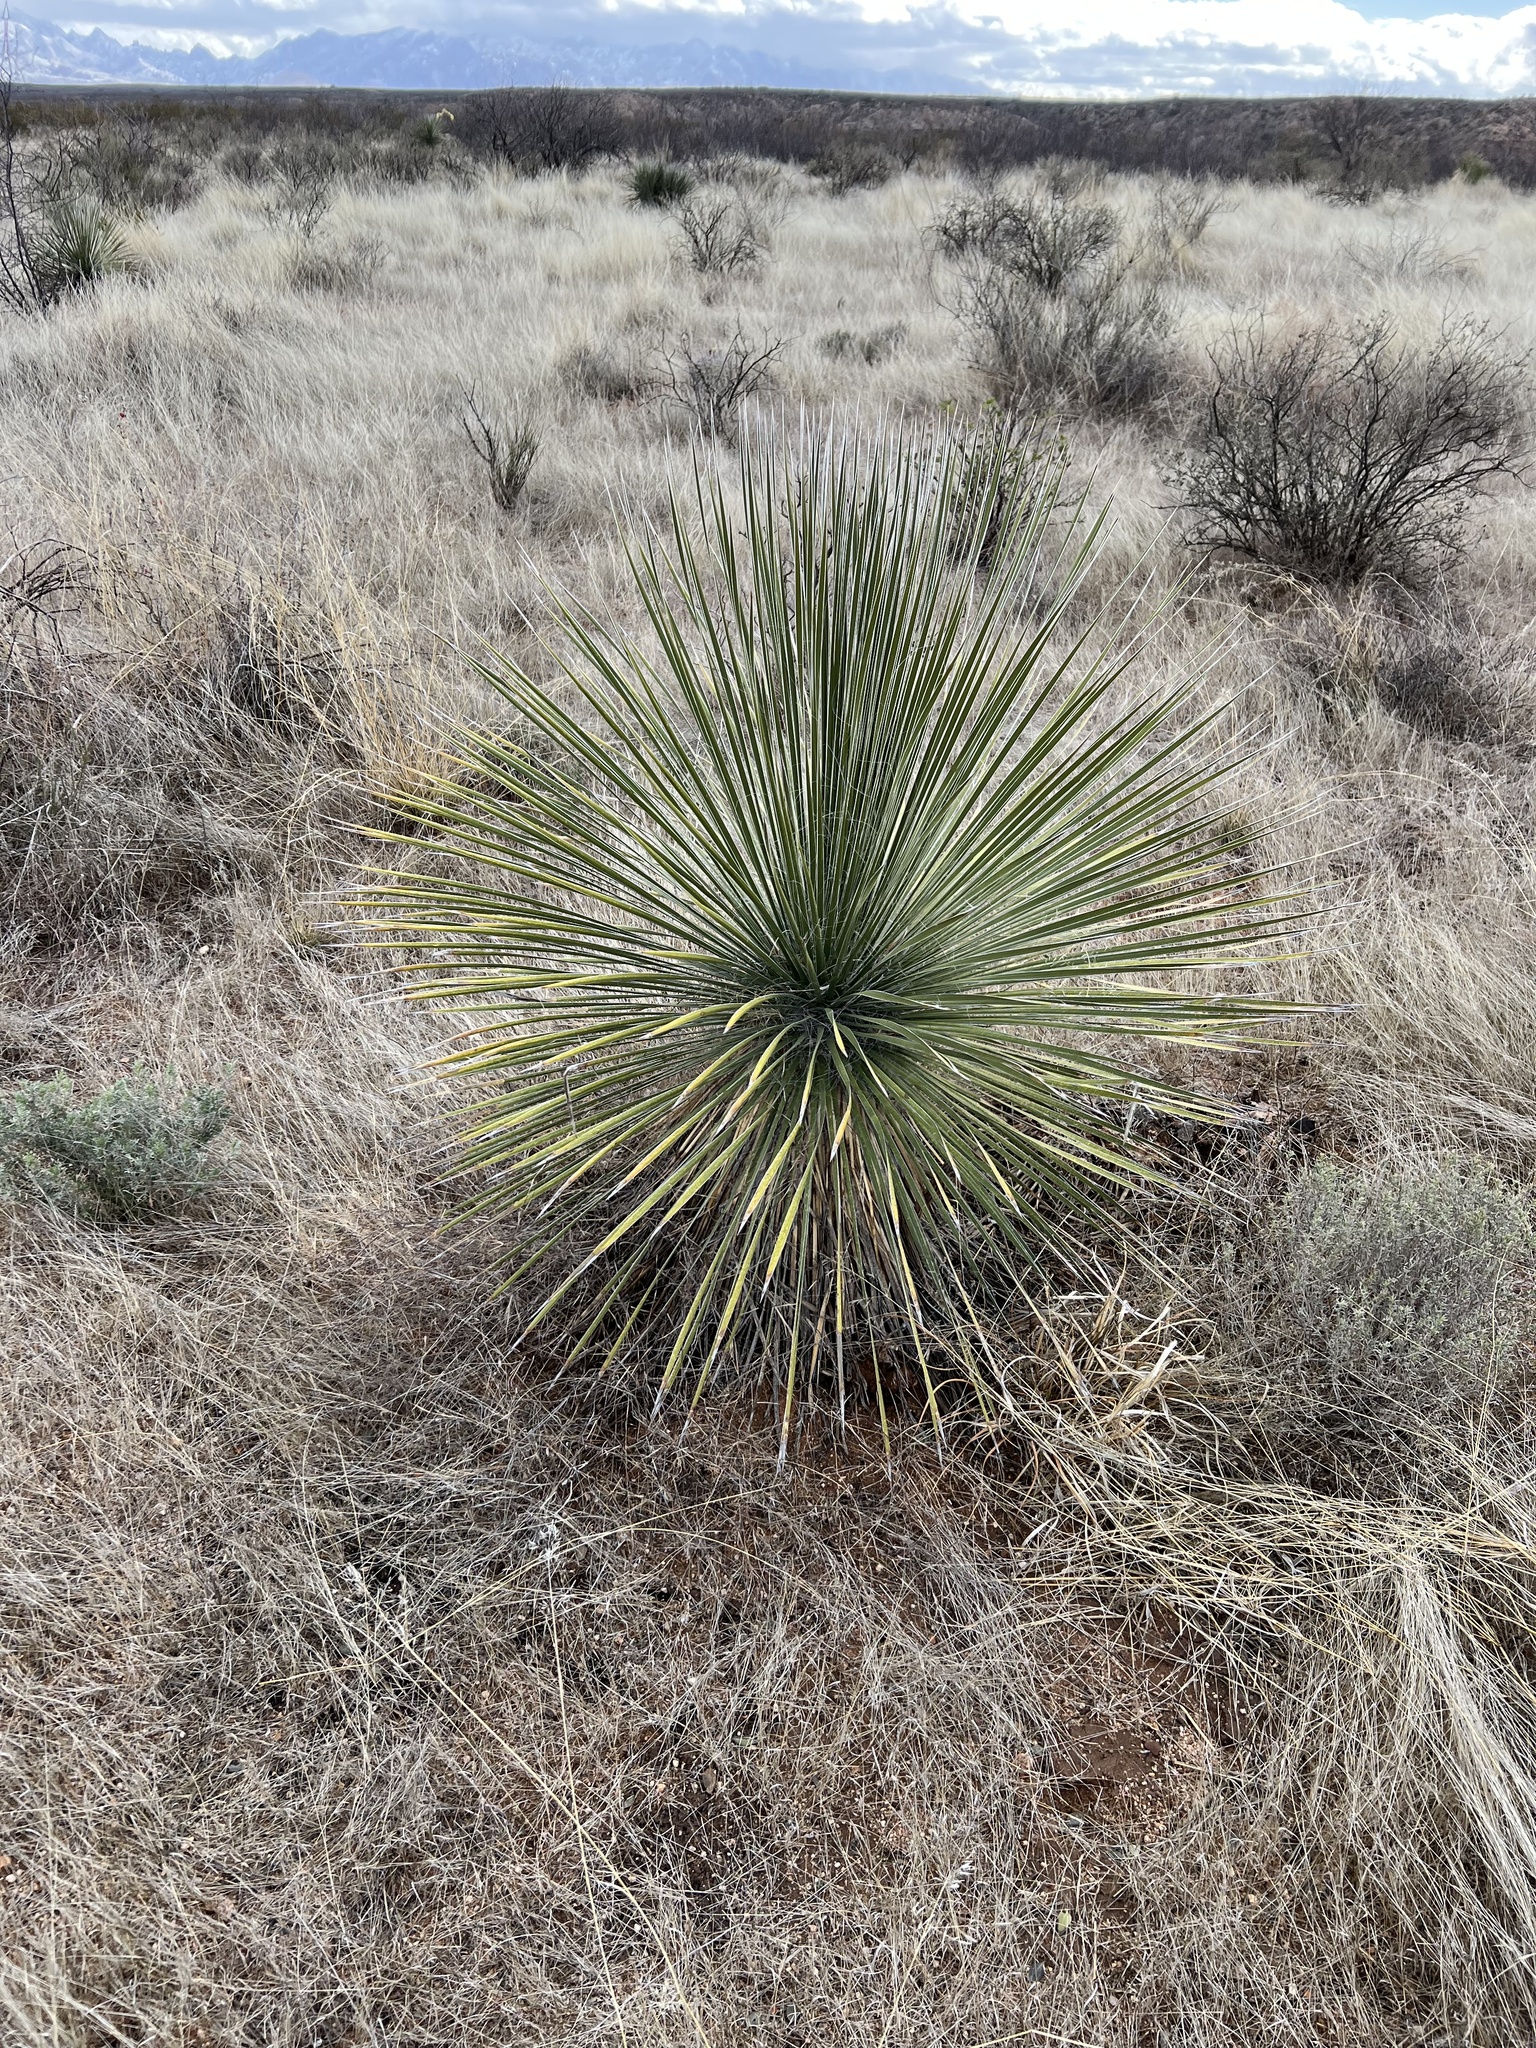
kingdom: Plantae
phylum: Tracheophyta
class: Liliopsida
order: Asparagales
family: Asparagaceae
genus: Yucca
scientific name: Yucca elata
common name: Palmella
